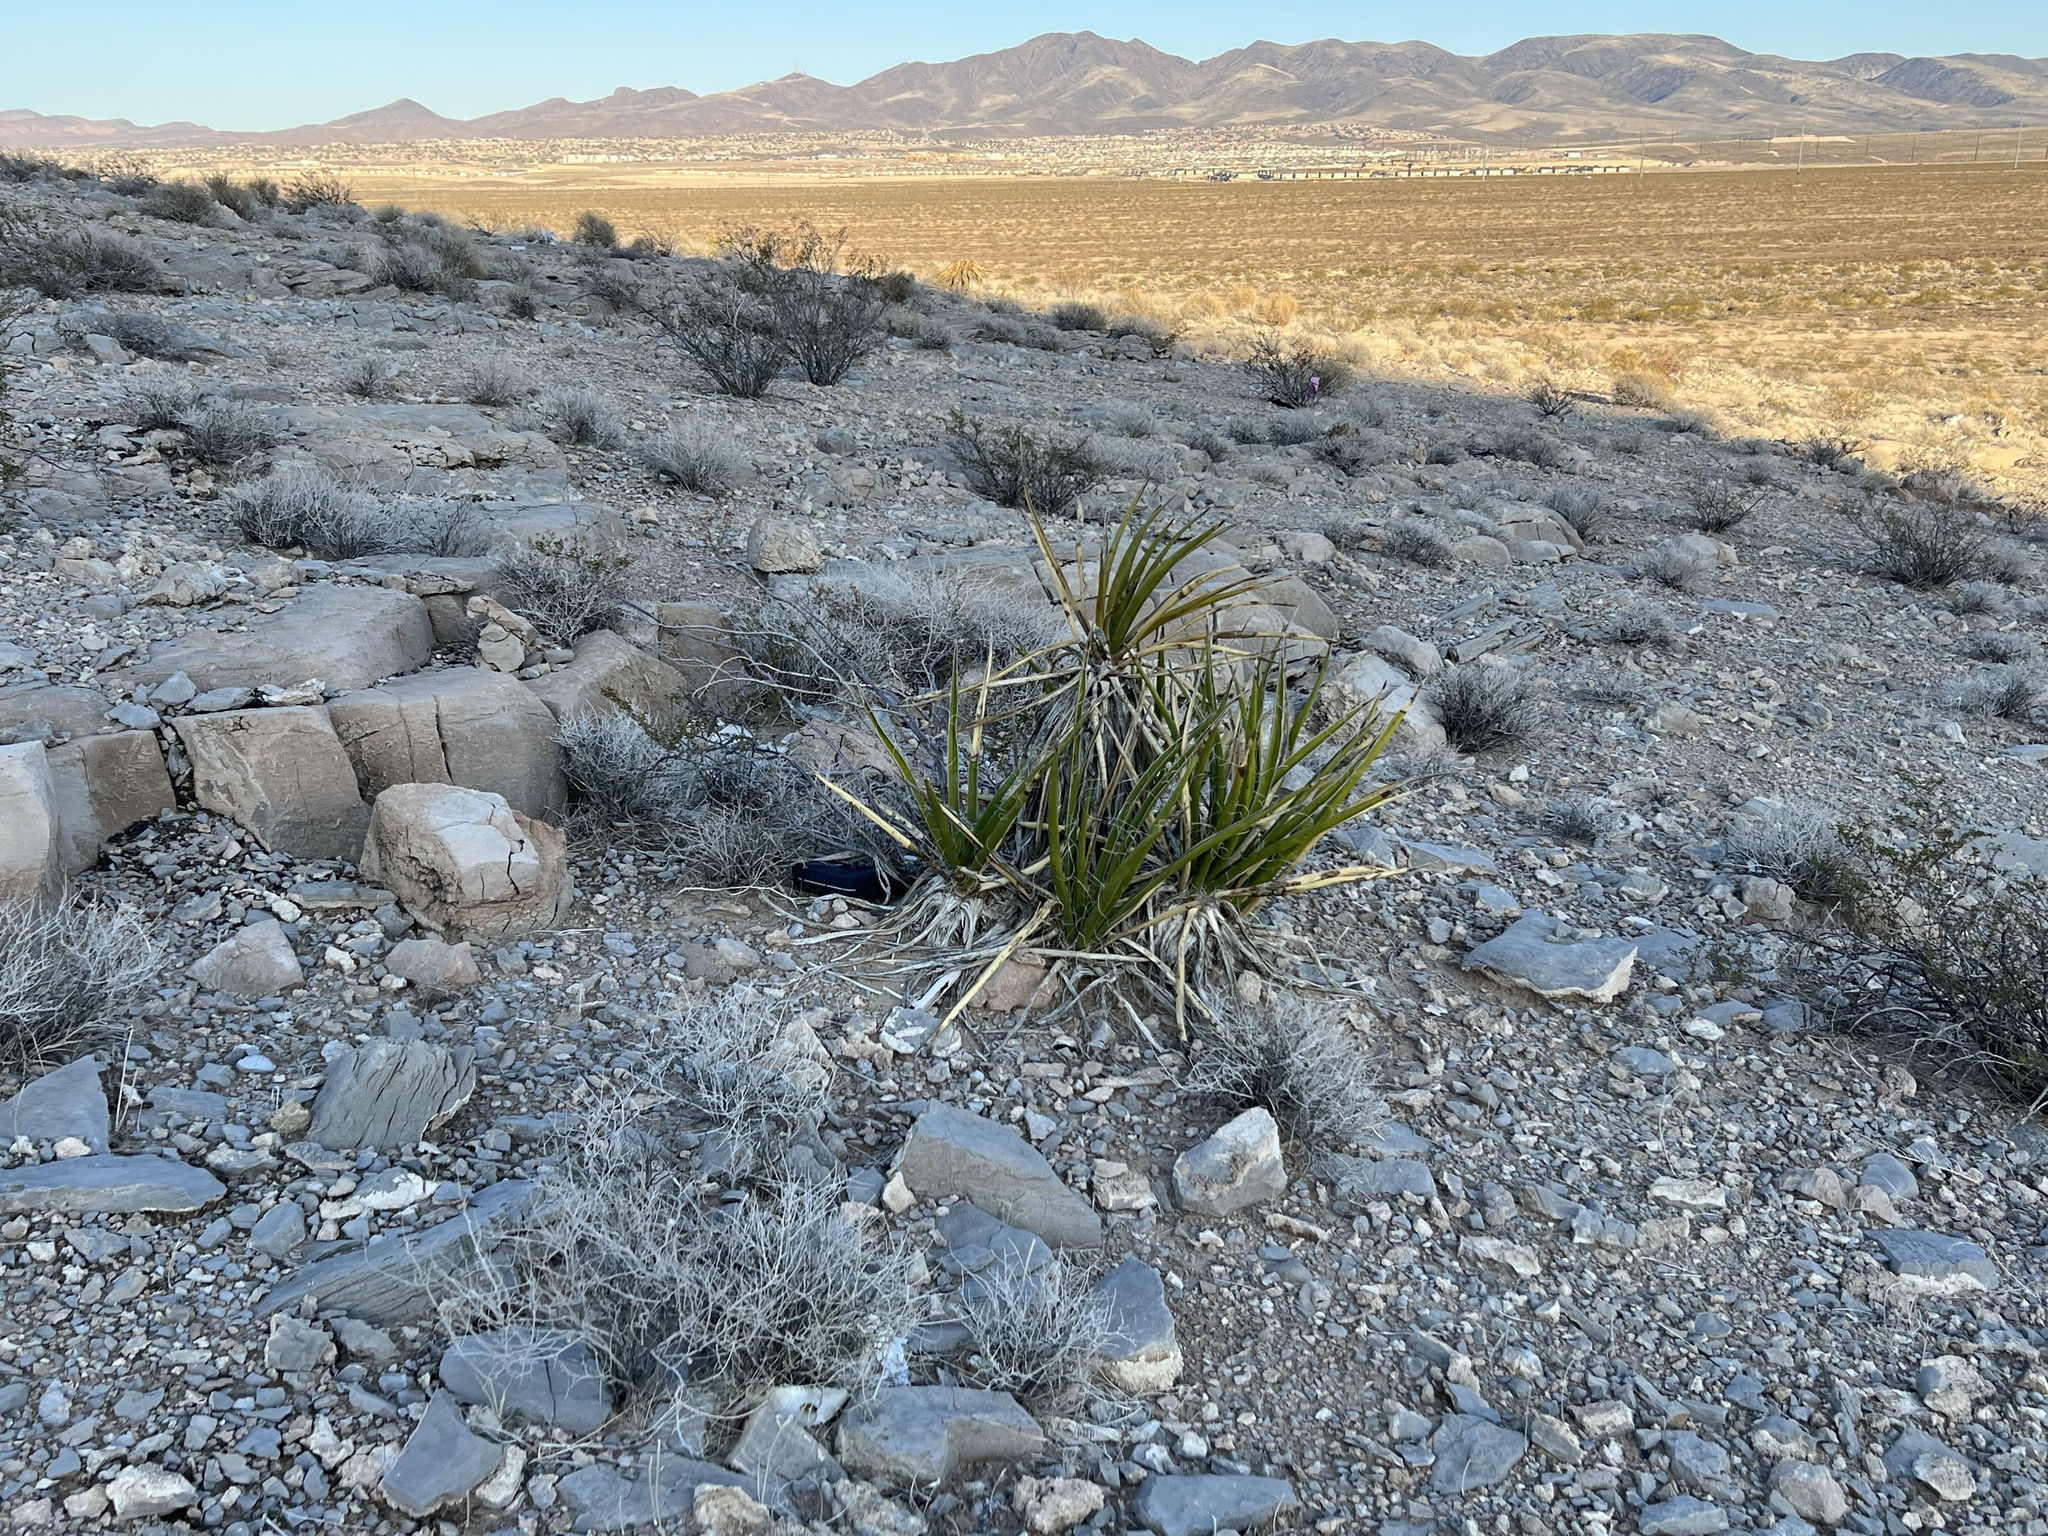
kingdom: Plantae
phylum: Tracheophyta
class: Liliopsida
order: Asparagales
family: Asparagaceae
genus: Yucca
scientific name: Yucca schidigera
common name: Mojave yucca
